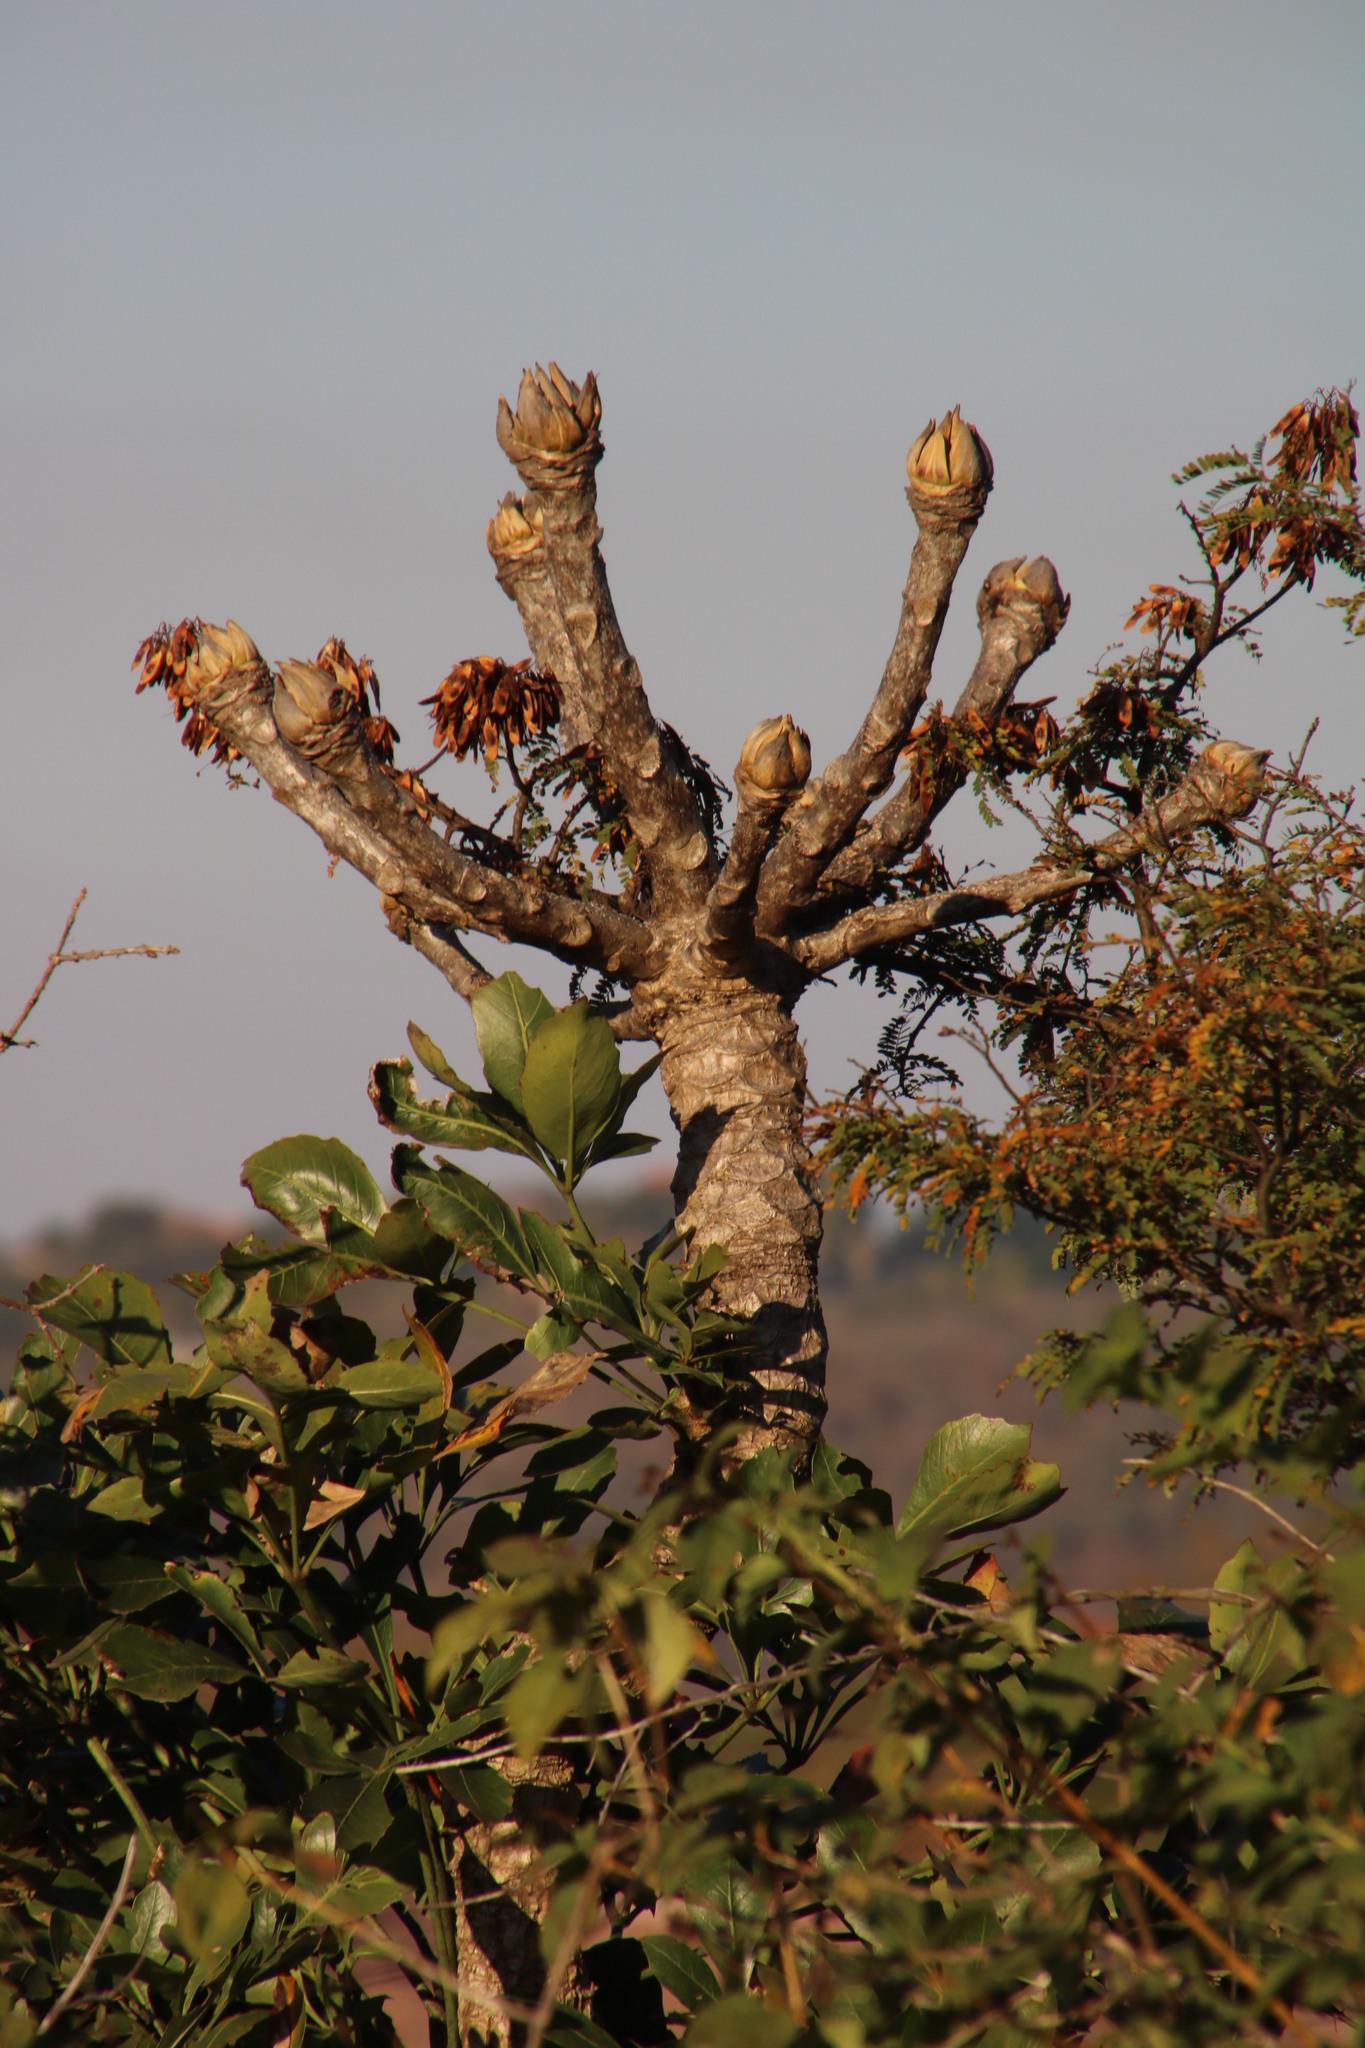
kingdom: Plantae
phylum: Tracheophyta
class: Magnoliopsida
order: Apiales
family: Araliaceae
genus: Cussonia
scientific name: Cussonia spicata
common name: Common cabbagetree
